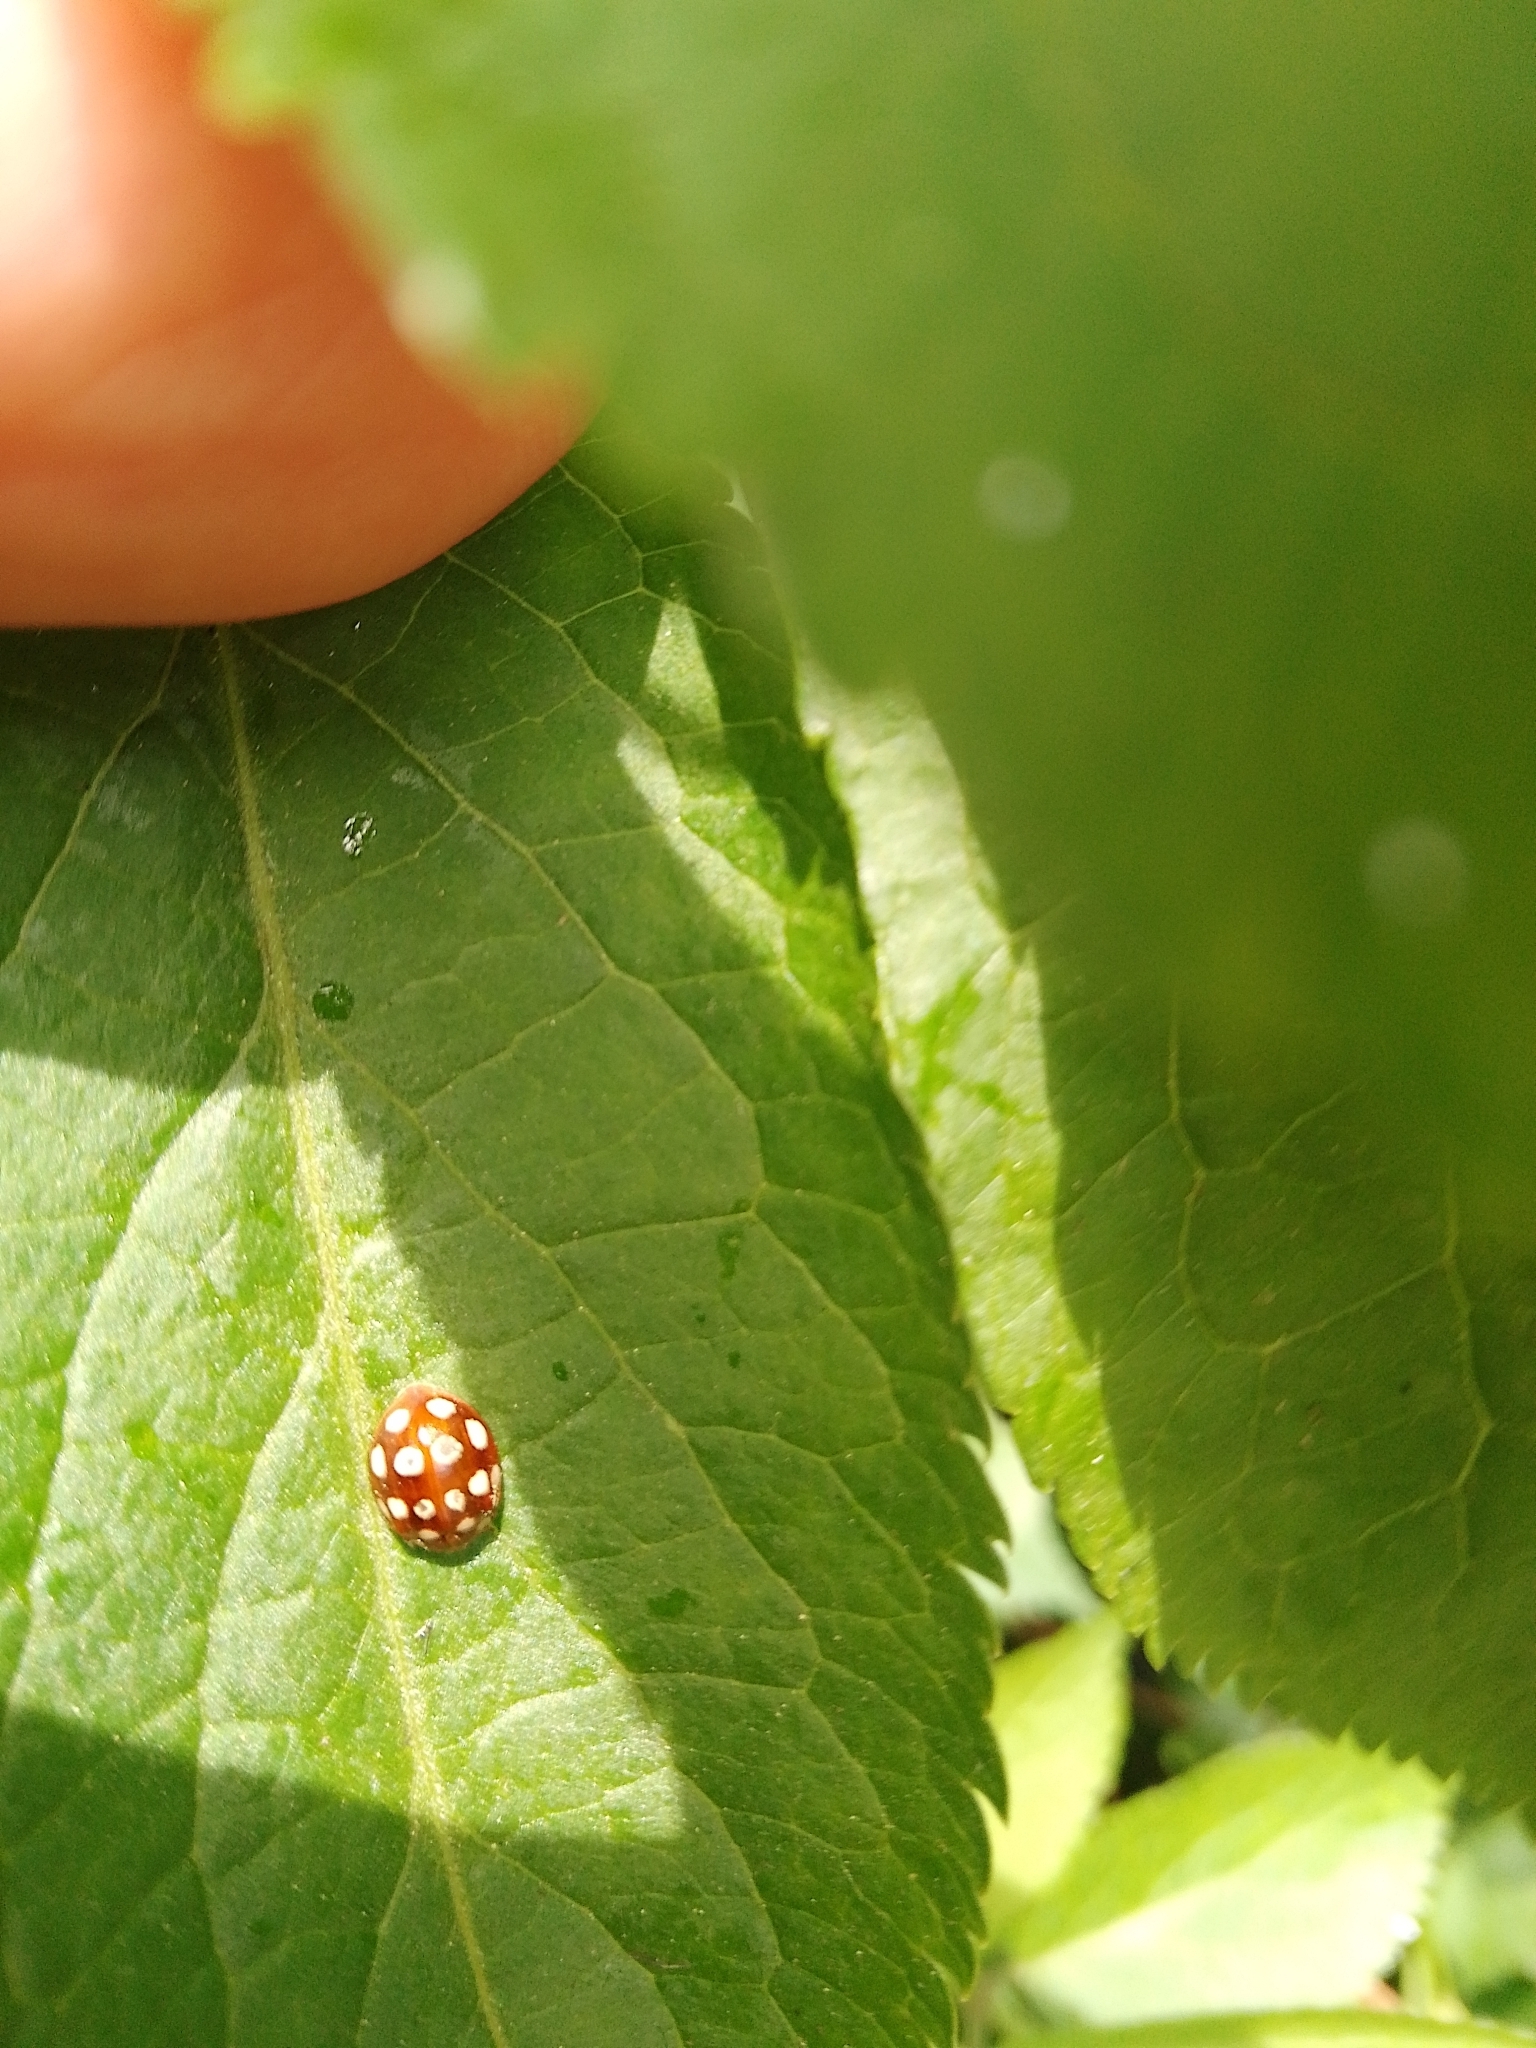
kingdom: Animalia
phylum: Arthropoda
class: Insecta
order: Coleoptera
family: Coccinellidae
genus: Calvia
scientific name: Calvia quatuordecimguttata
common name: Cream-spot ladybird
